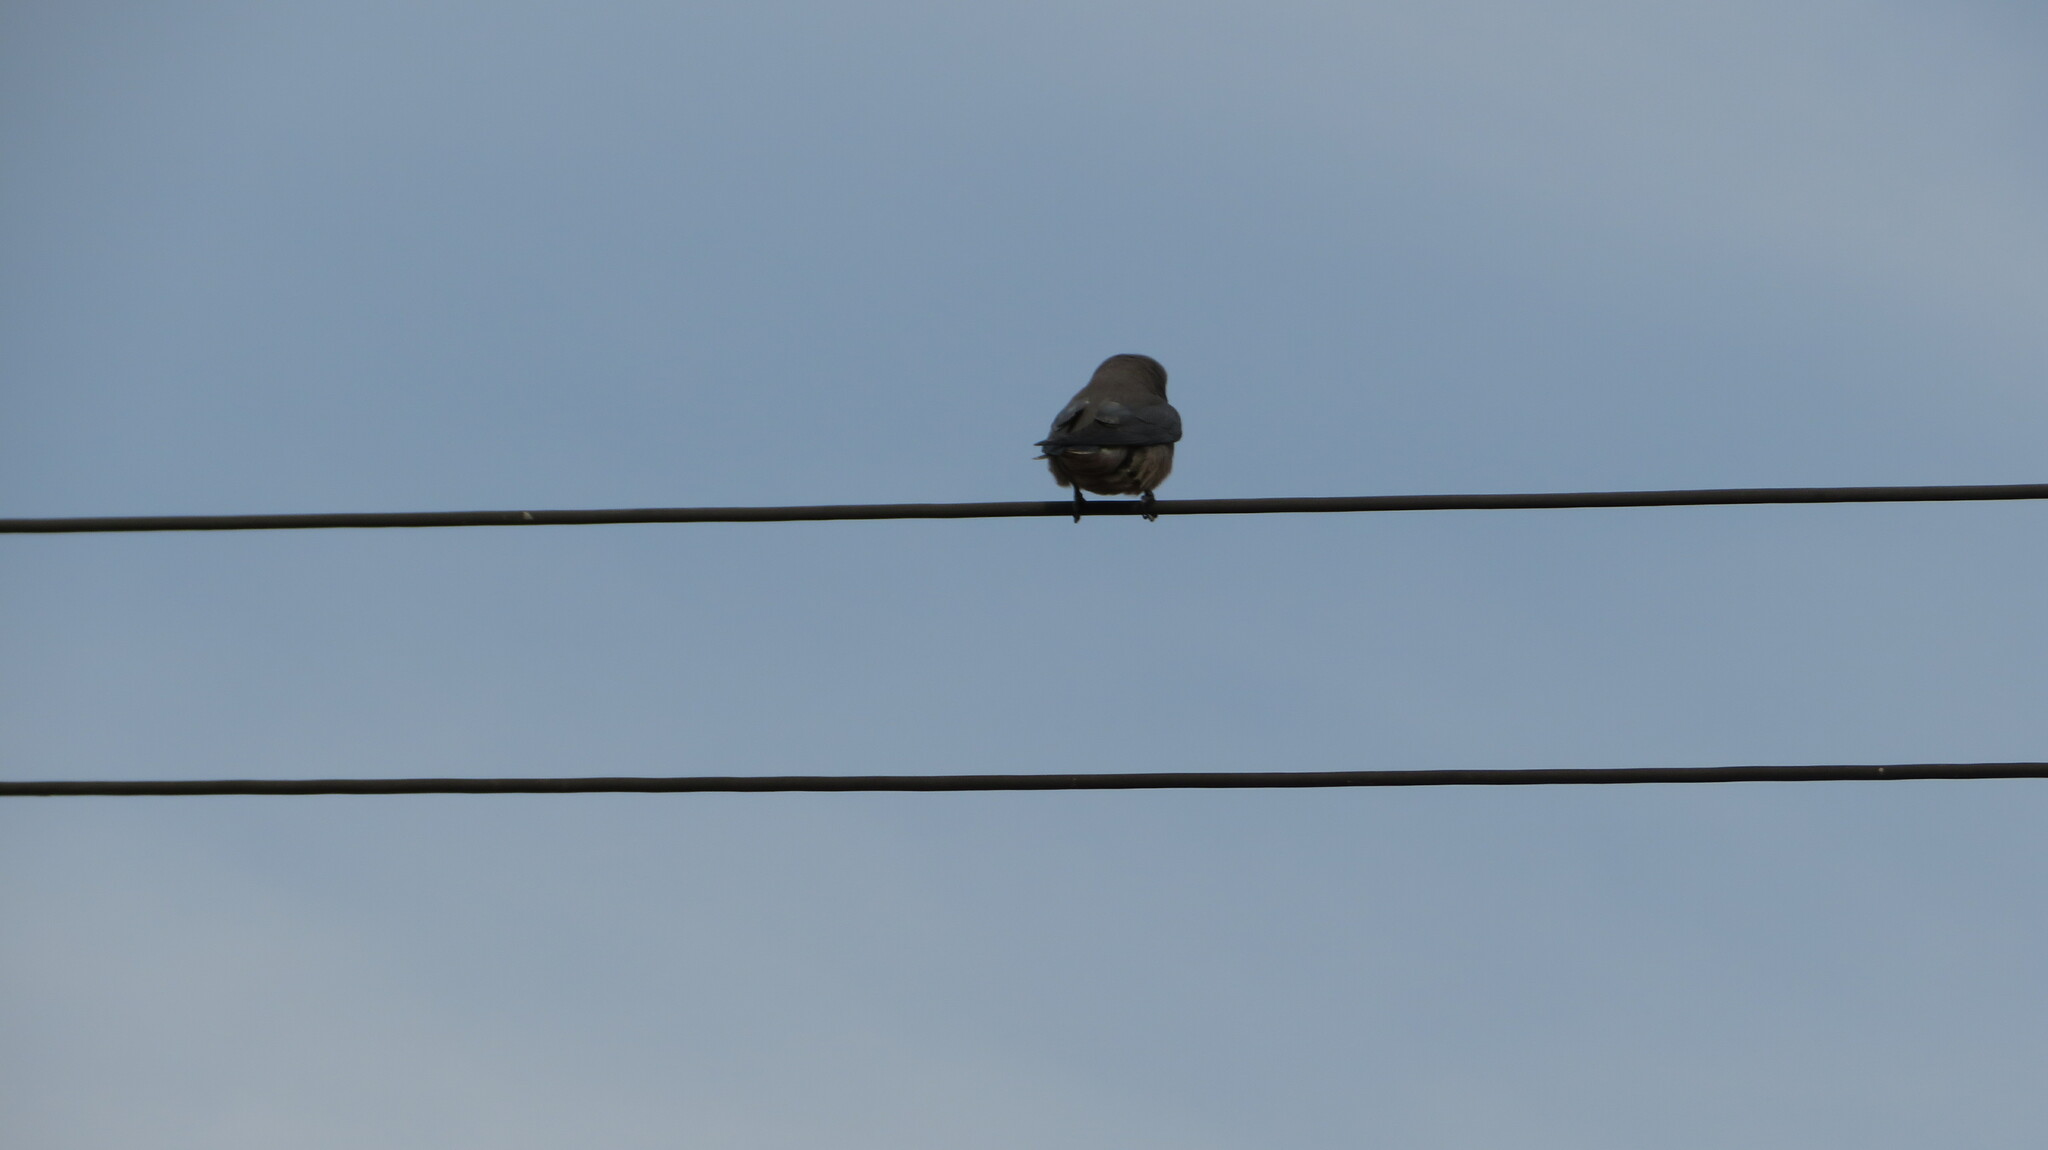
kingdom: Animalia
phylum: Chordata
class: Aves
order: Passeriformes
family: Artamidae
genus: Artamus
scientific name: Artamus fuscus
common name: Ashy woodswallow
